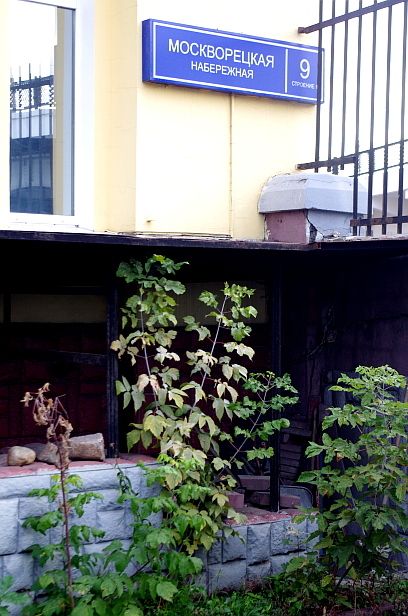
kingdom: Plantae
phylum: Tracheophyta
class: Magnoliopsida
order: Sapindales
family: Sapindaceae
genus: Acer
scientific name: Acer negundo
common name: Ashleaf maple
